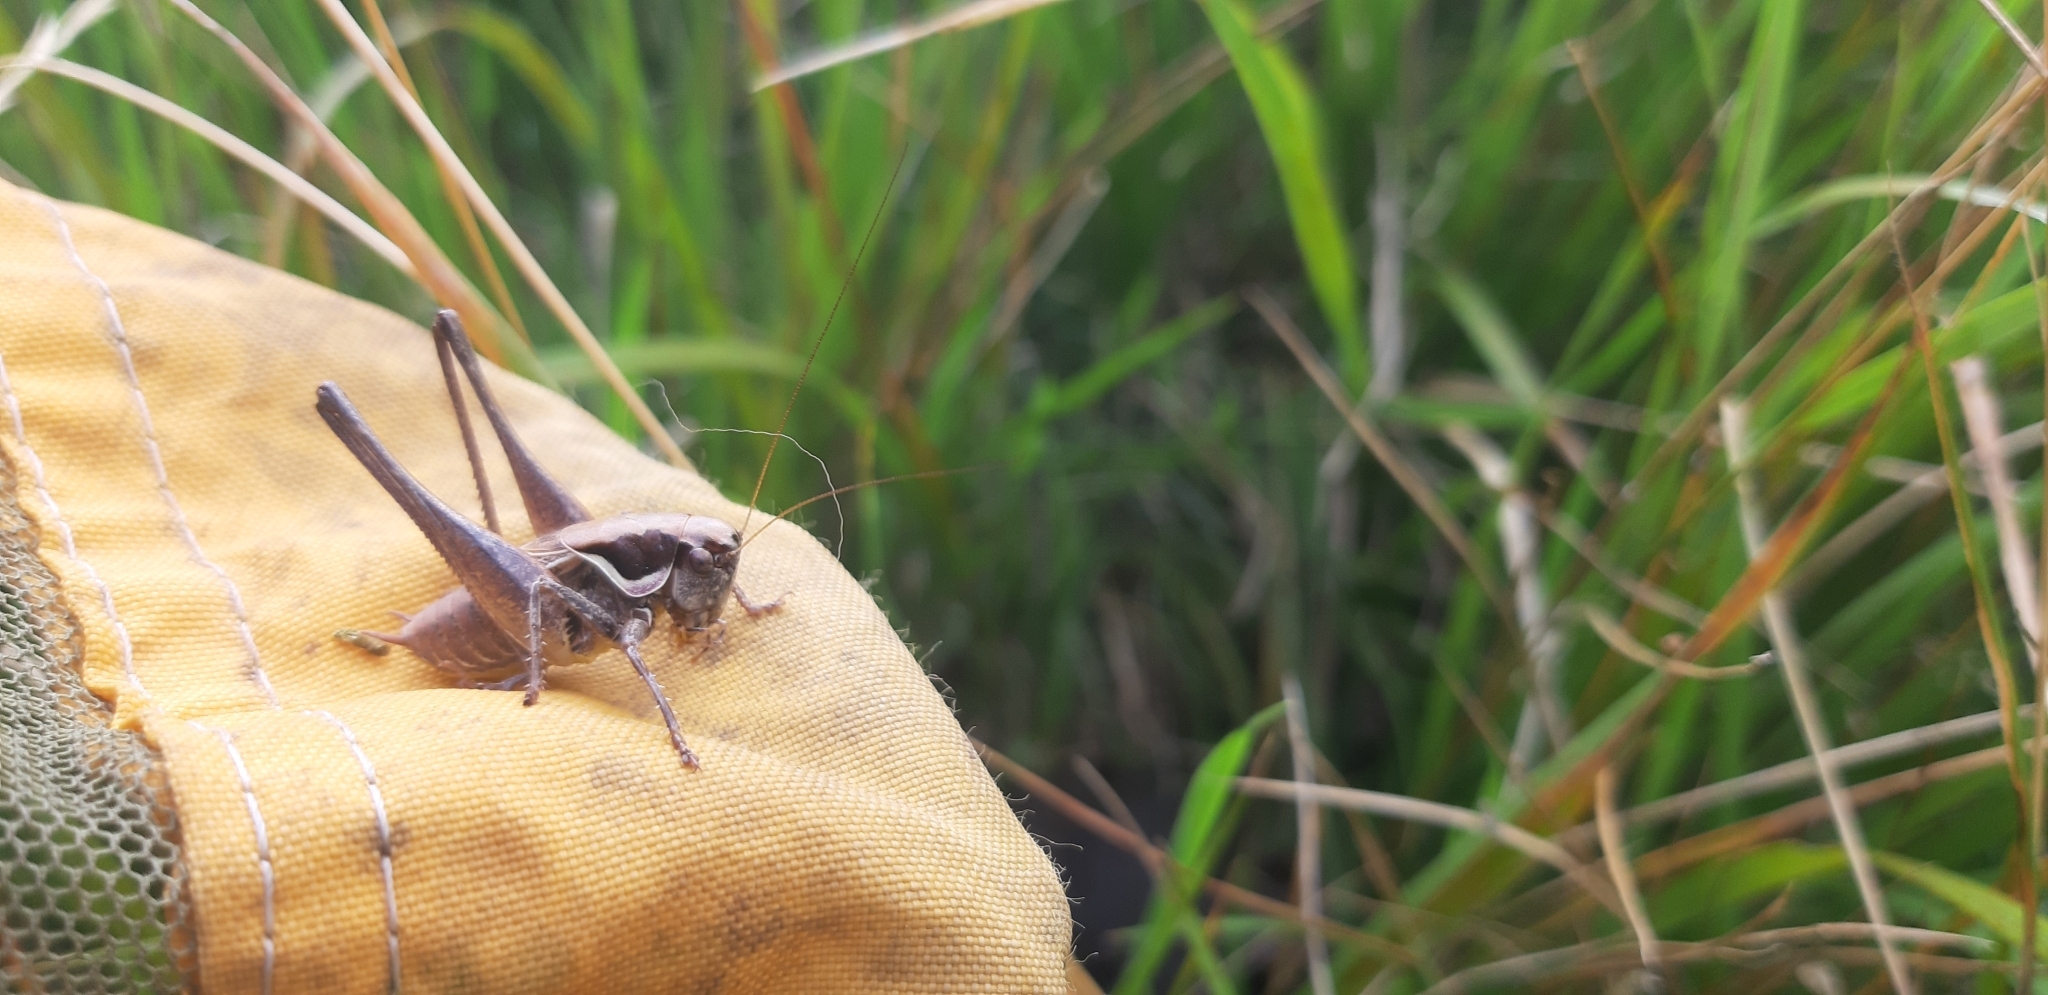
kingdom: Animalia
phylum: Arthropoda
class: Insecta
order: Orthoptera
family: Tettigoniidae
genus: Pholidoptera
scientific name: Pholidoptera fallax
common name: Fischer's bush-cricket
